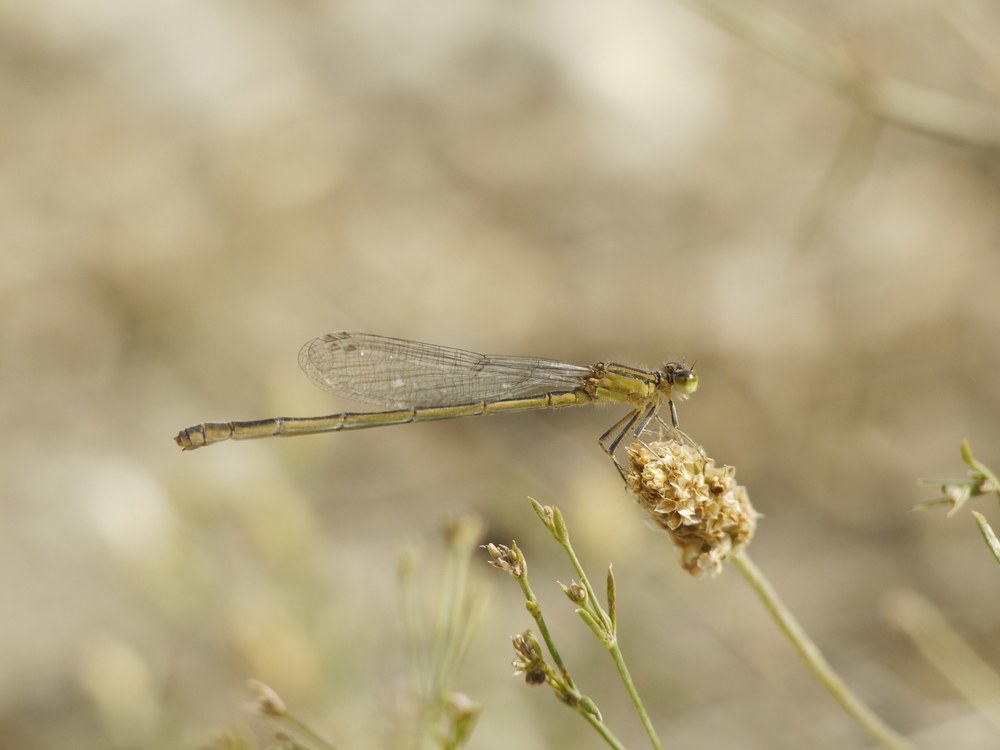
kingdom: Animalia
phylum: Arthropoda
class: Insecta
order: Odonata
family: Coenagrionidae
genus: Ischnura
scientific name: Ischnura elegans
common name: Blue-tailed damselfly
